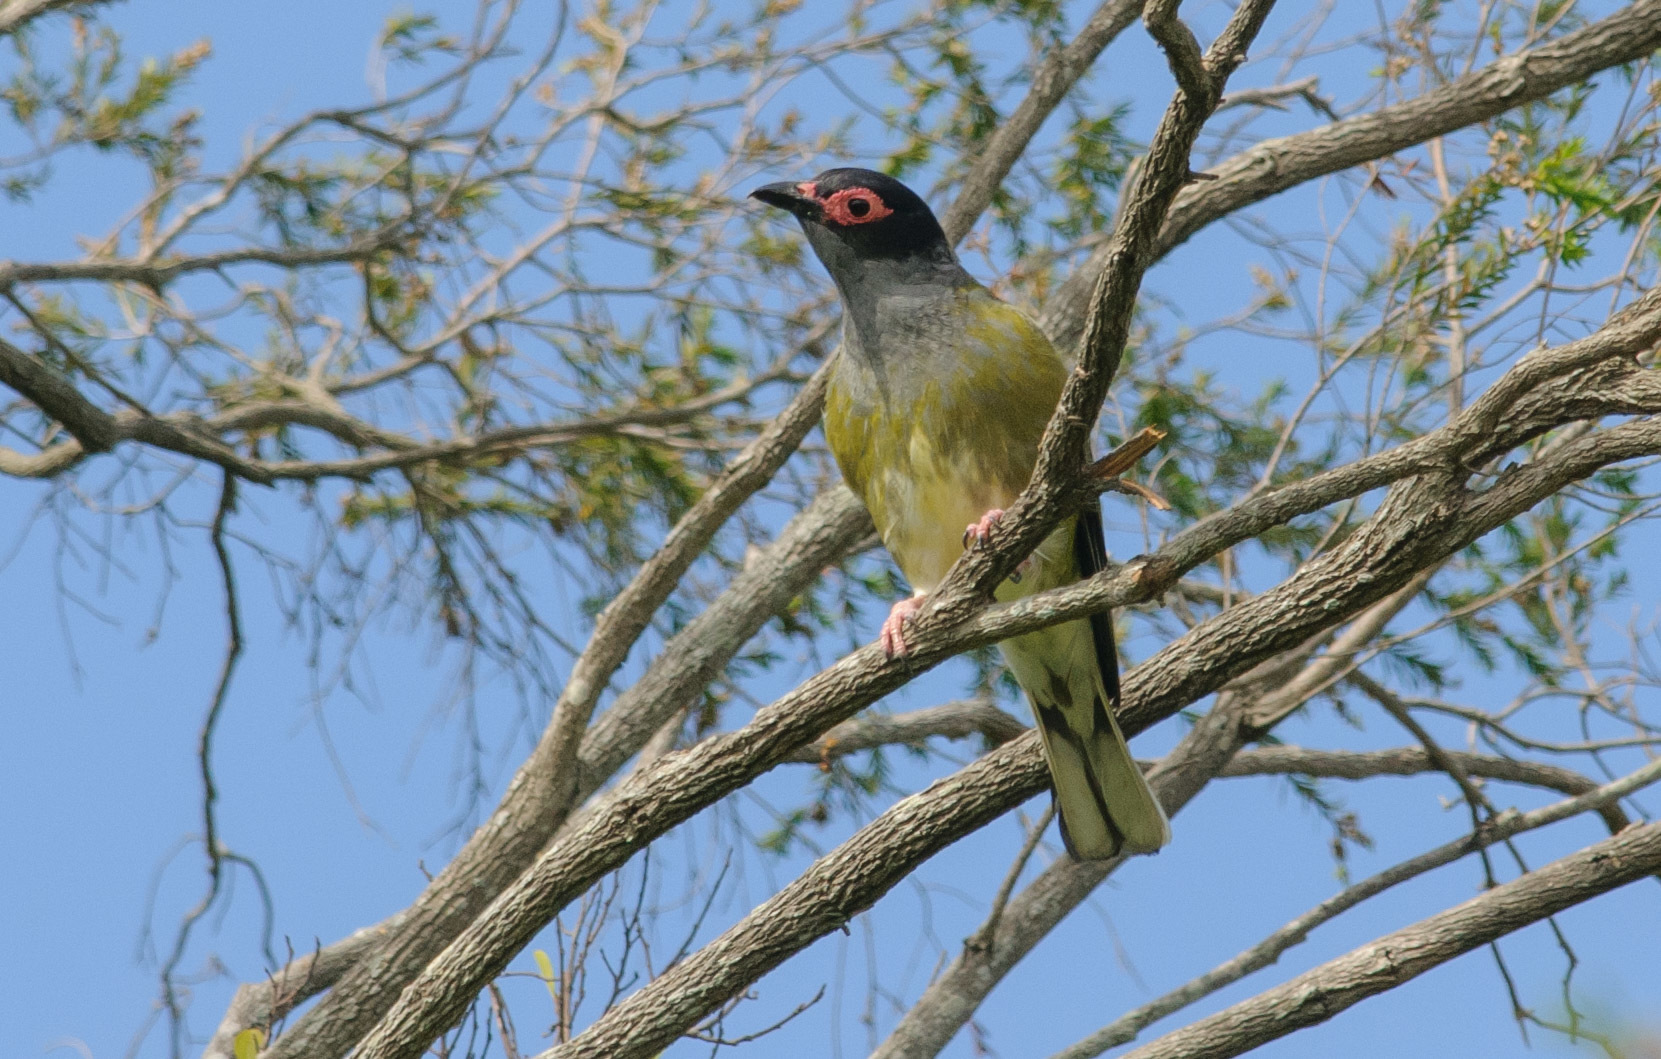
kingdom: Animalia
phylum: Chordata
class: Aves
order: Passeriformes
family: Oriolidae
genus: Sphecotheres
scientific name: Sphecotheres vieilloti
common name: Australasian figbird
